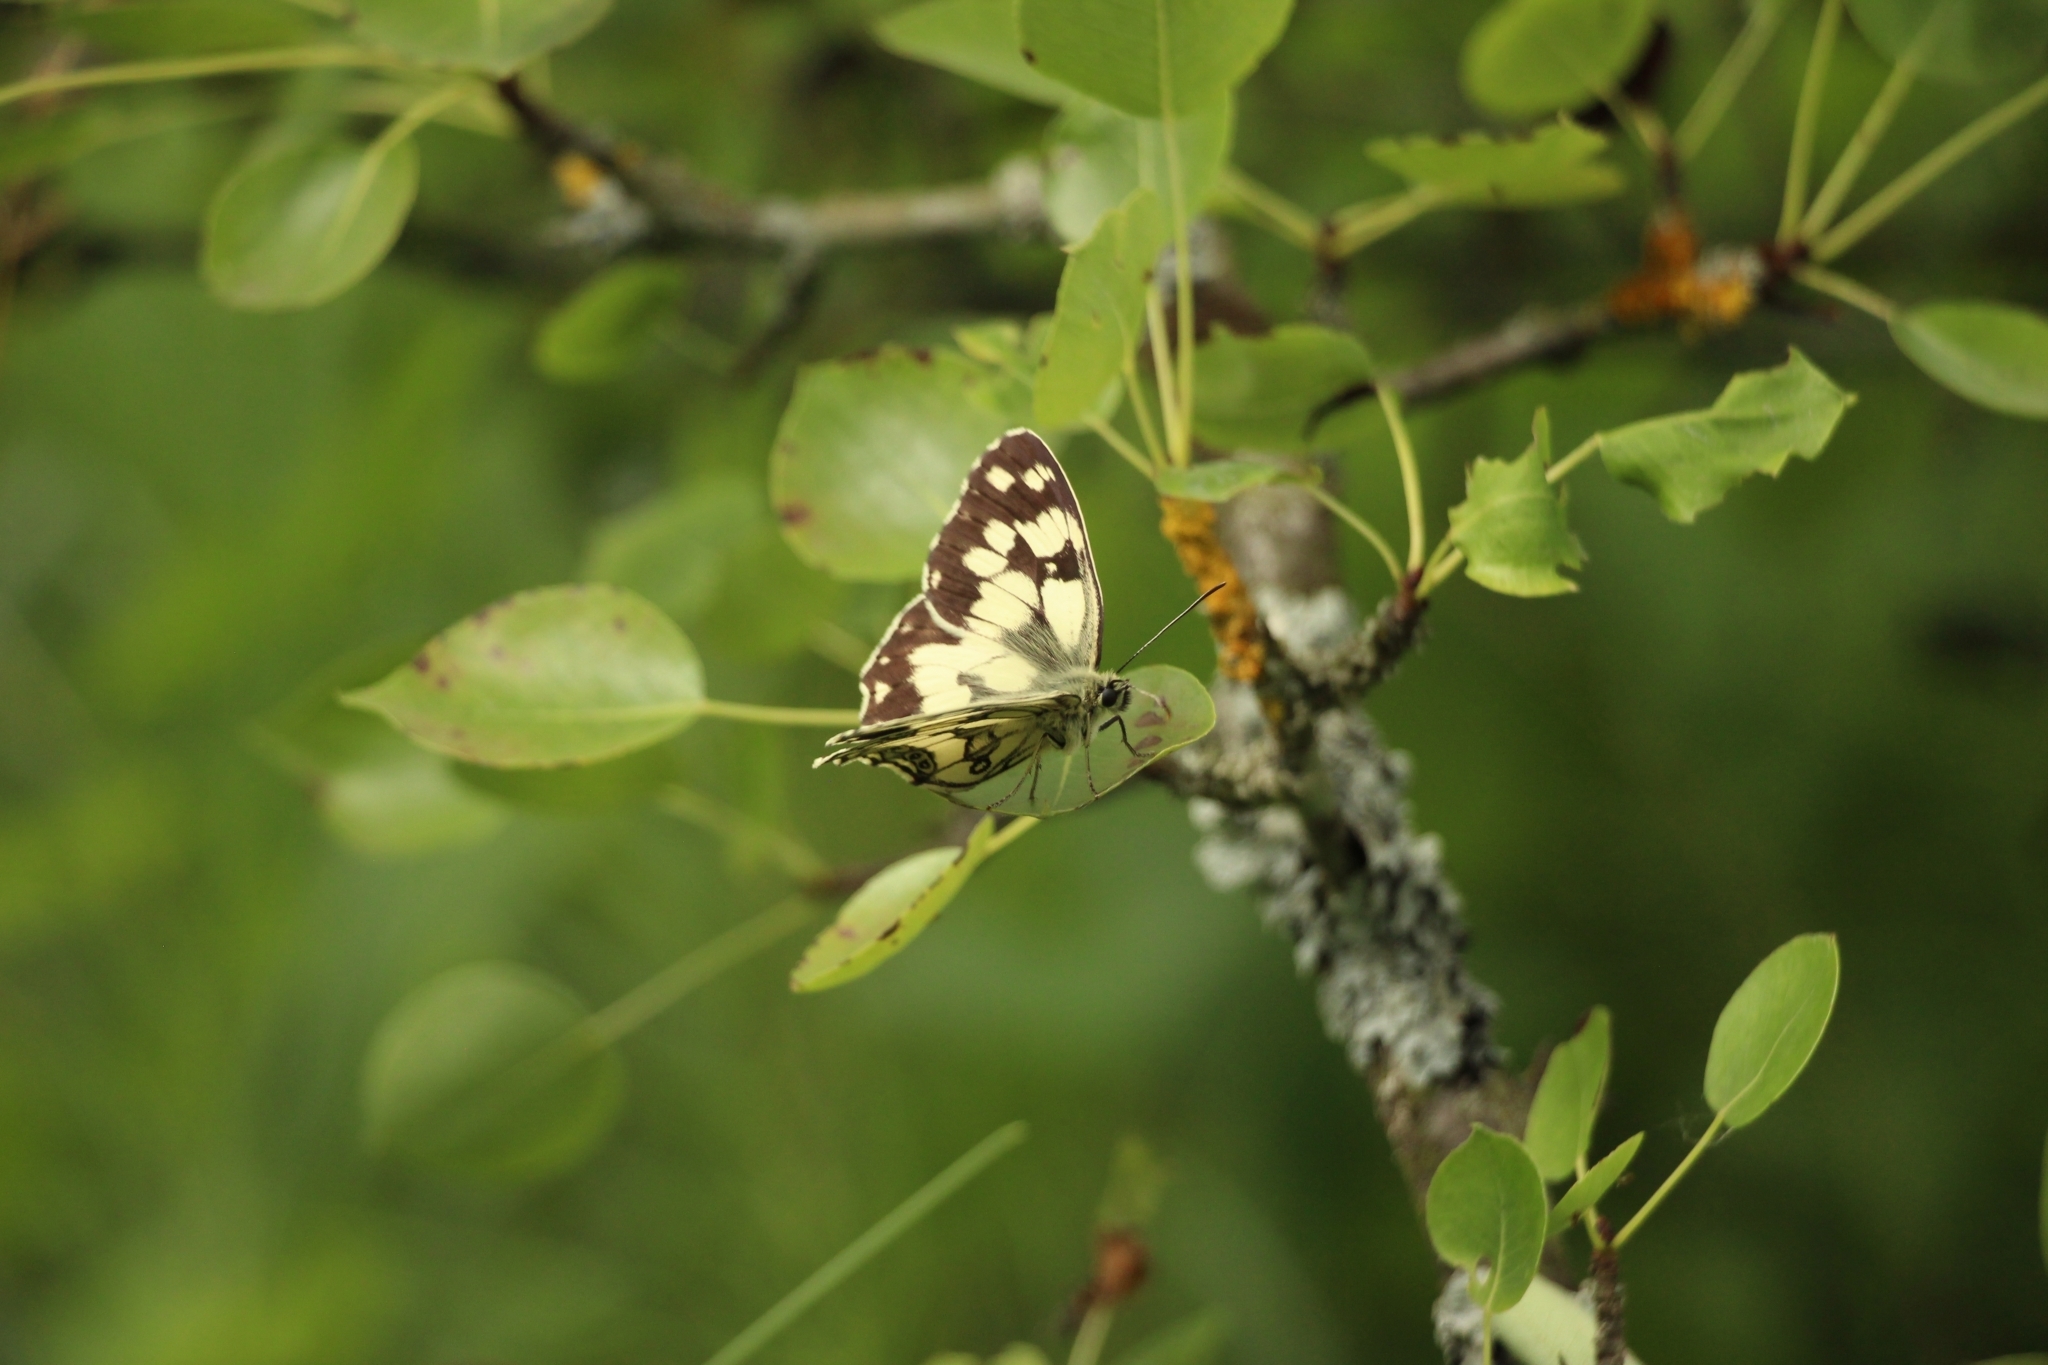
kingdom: Animalia
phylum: Arthropoda
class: Insecta
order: Lepidoptera
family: Nymphalidae
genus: Melanargia
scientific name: Melanargia galathea
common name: Marbled white
